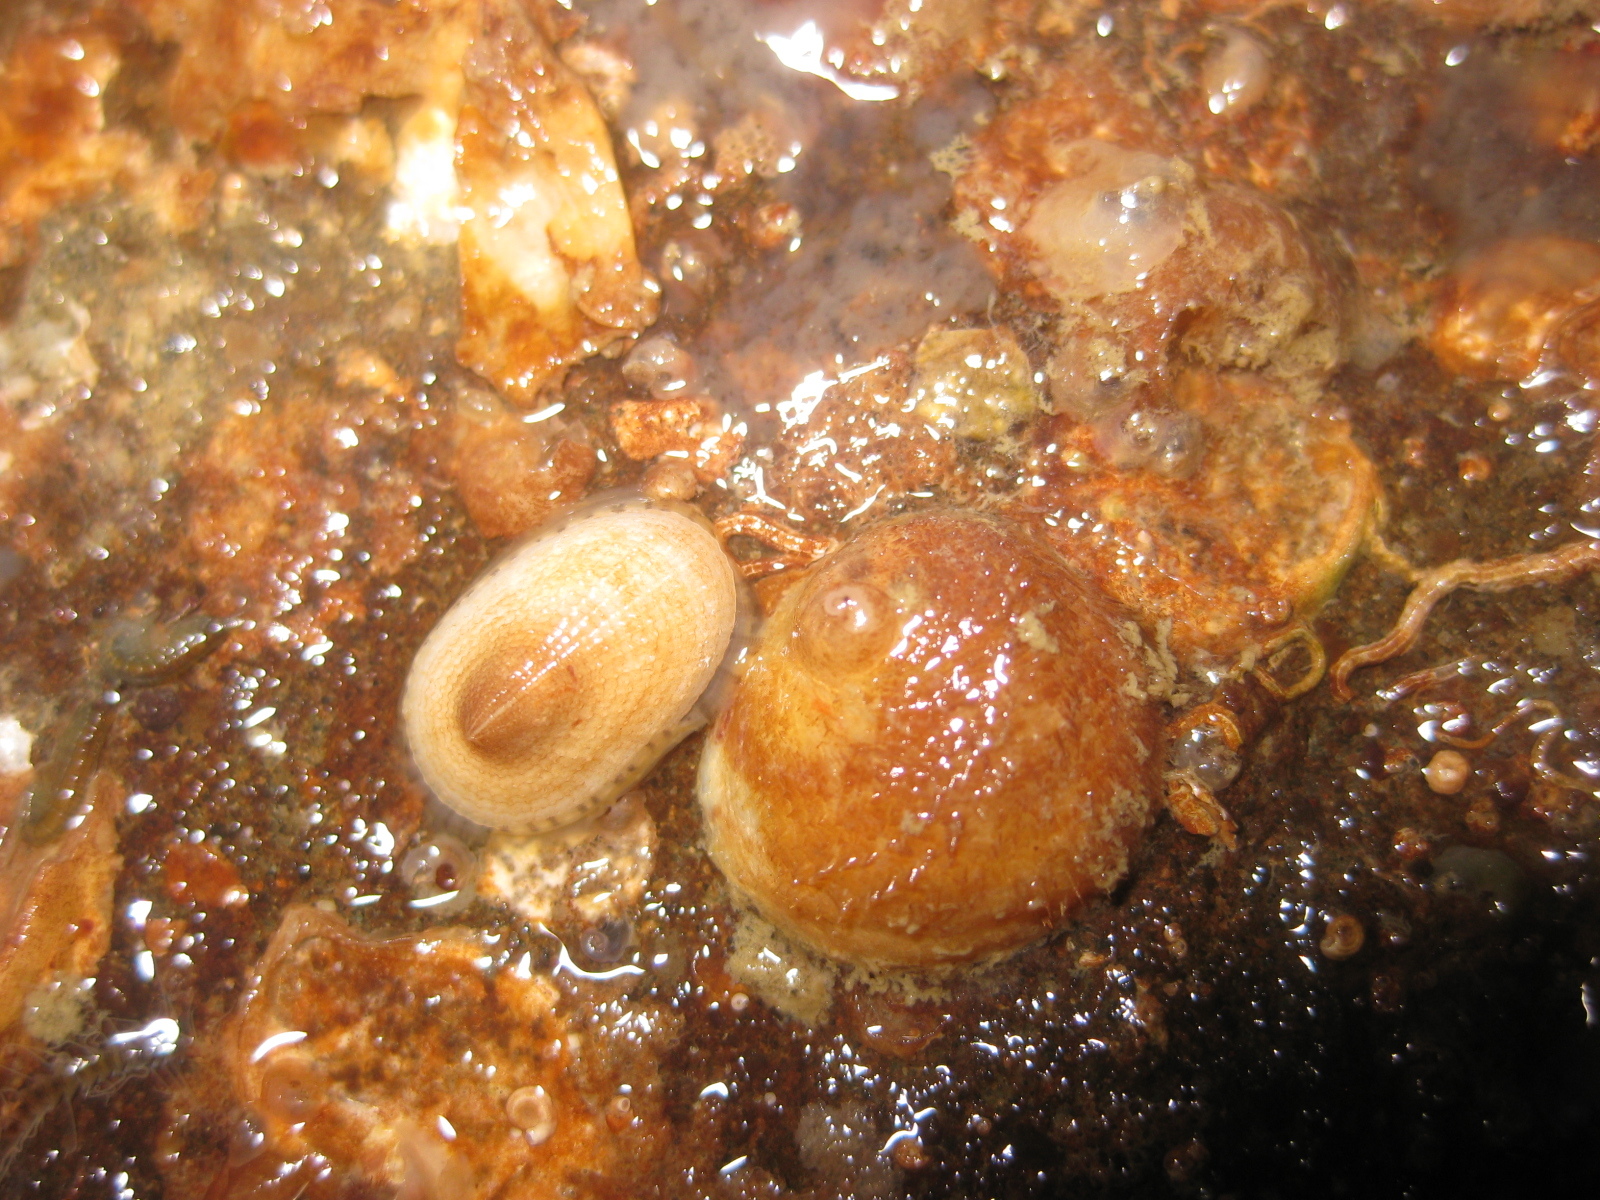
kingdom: Animalia
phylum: Mollusca
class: Gastropoda
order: Lepetellida
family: Fissurellidae
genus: Tugali
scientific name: Tugali suteri
